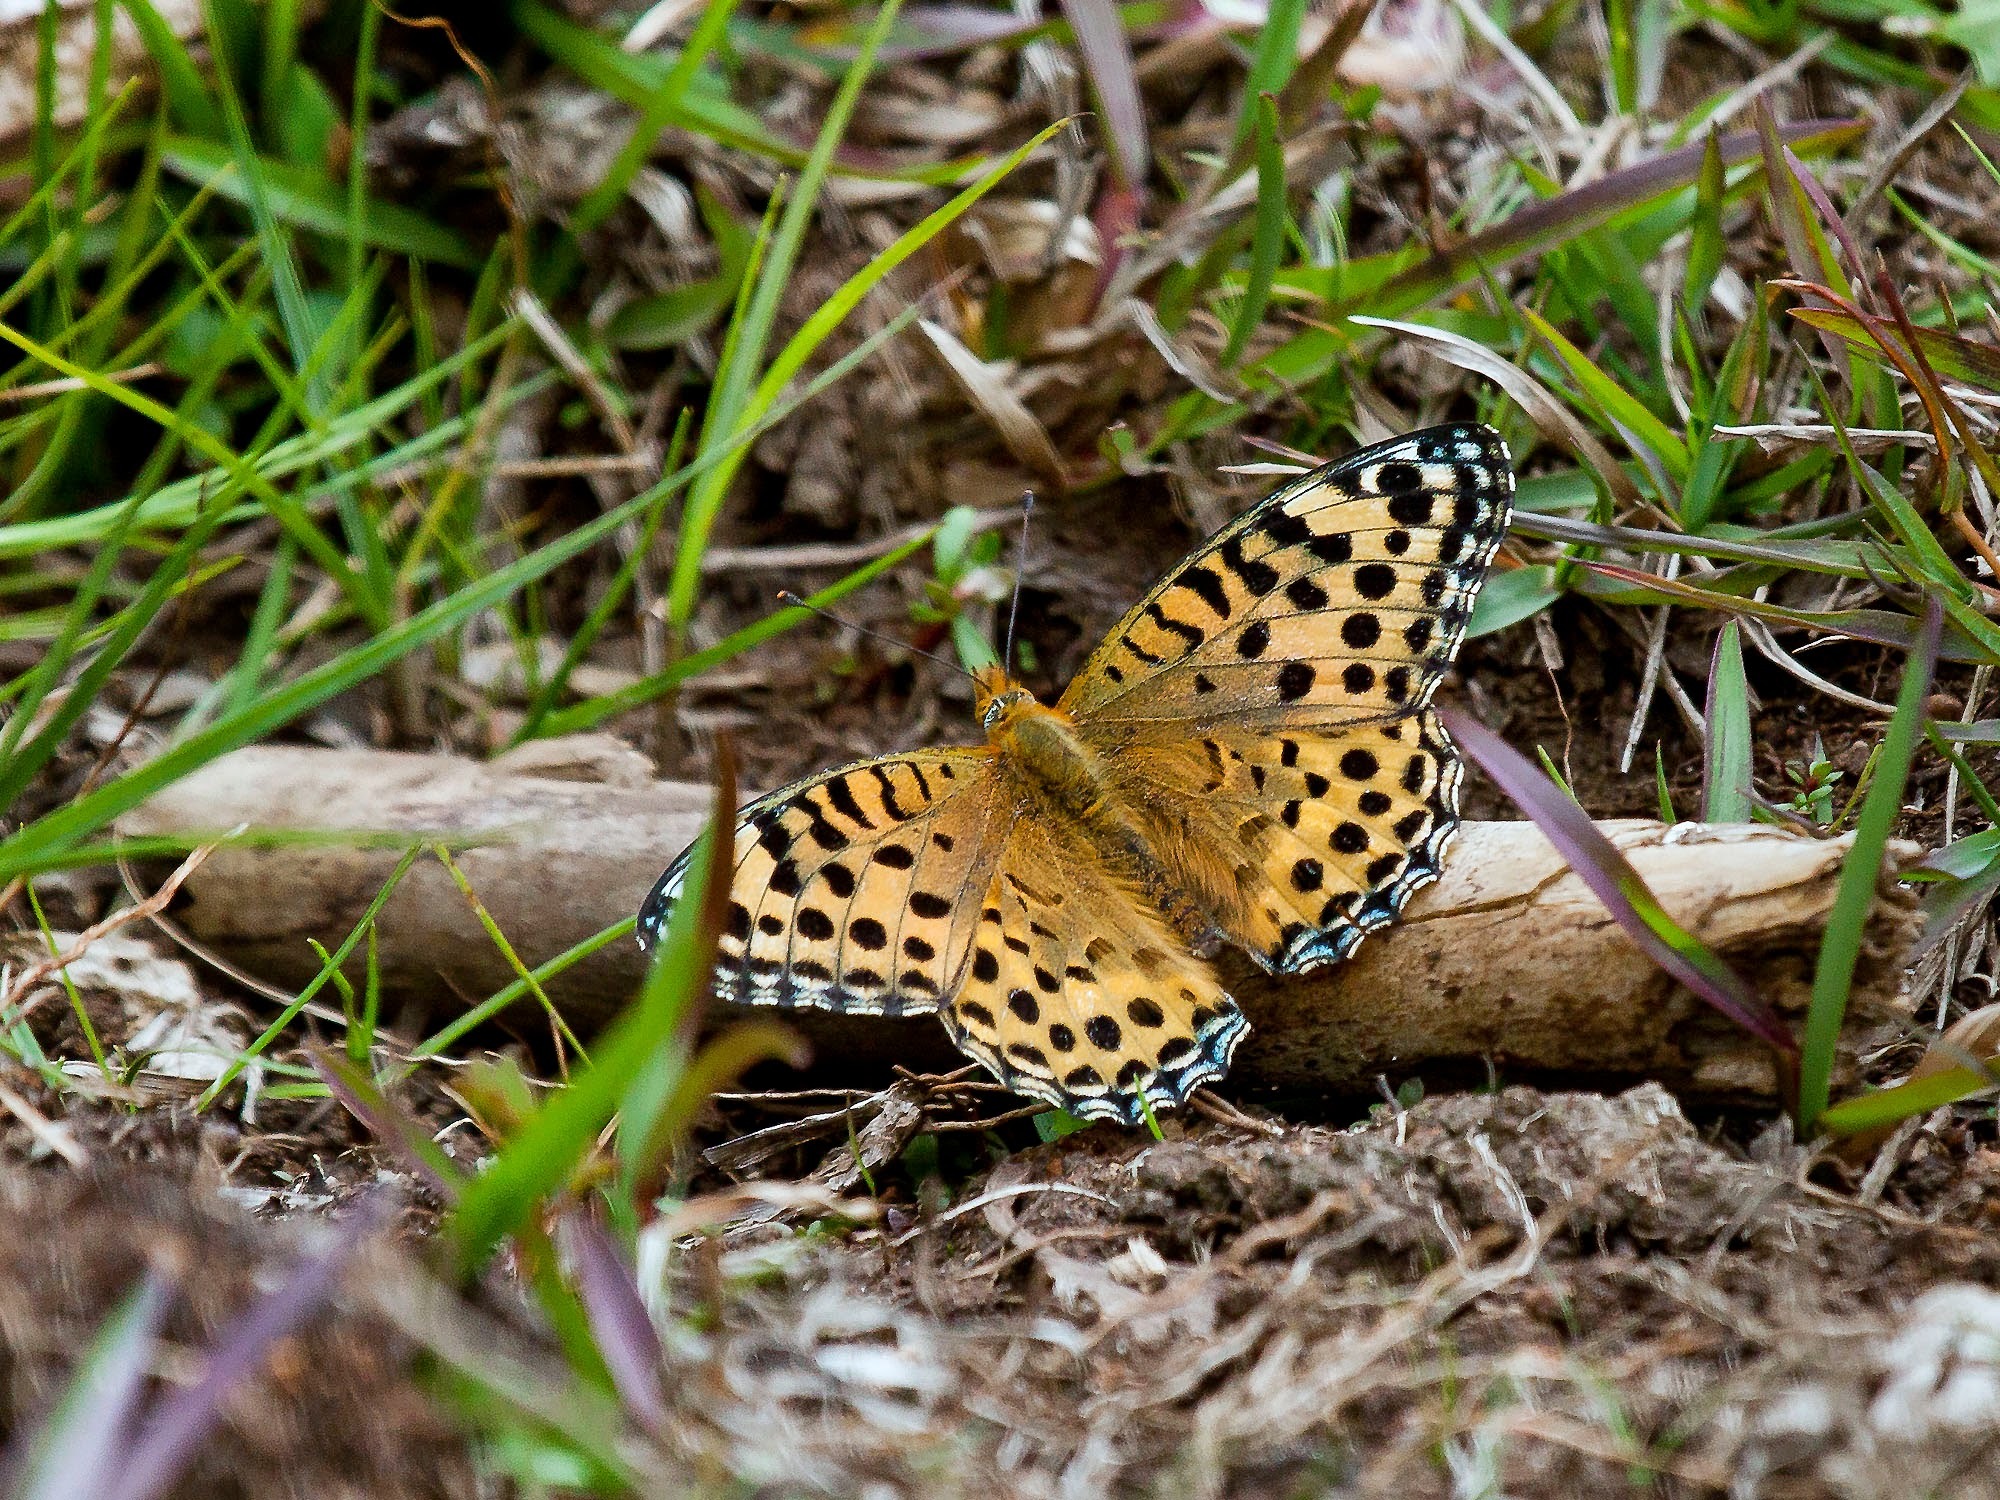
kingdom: Animalia
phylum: Arthropoda
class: Insecta
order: Lepidoptera
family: Nymphalidae
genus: Argyreus
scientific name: Argyreus hyperbius
